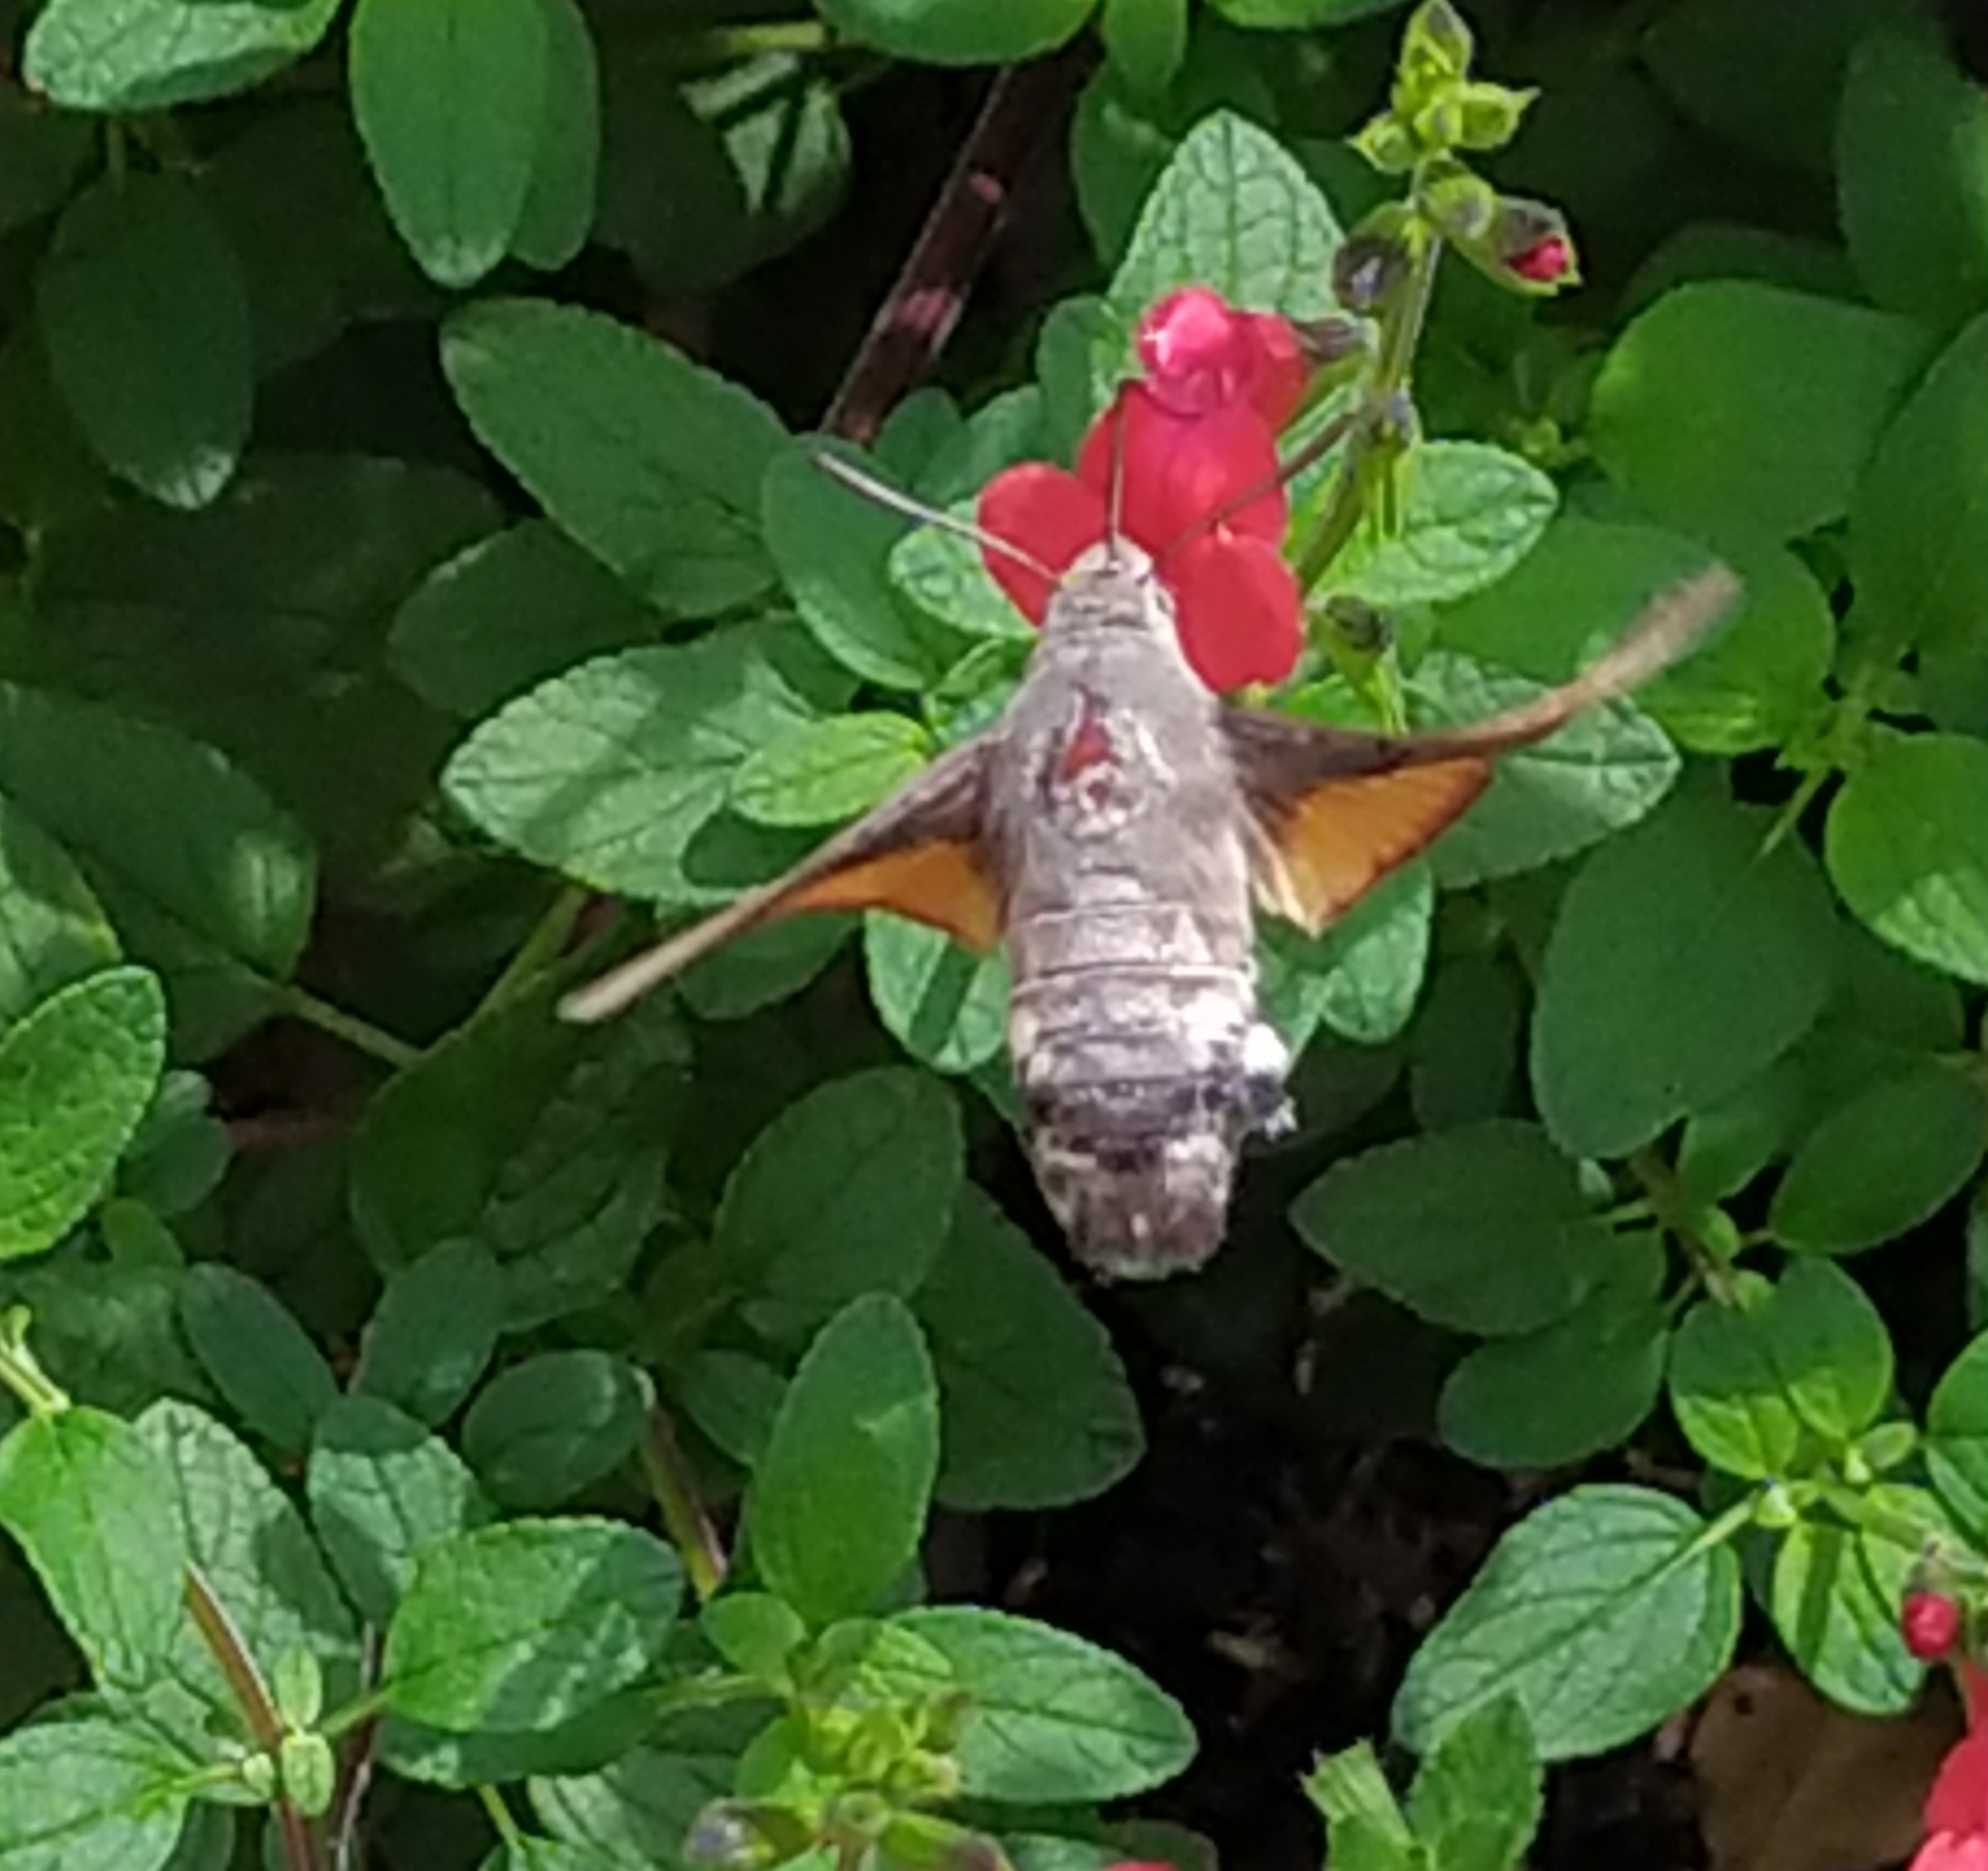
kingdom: Animalia
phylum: Arthropoda
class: Insecta
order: Lepidoptera
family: Sphingidae
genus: Macroglossum
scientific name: Macroglossum stellatarum
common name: Humming-bird hawk-moth
